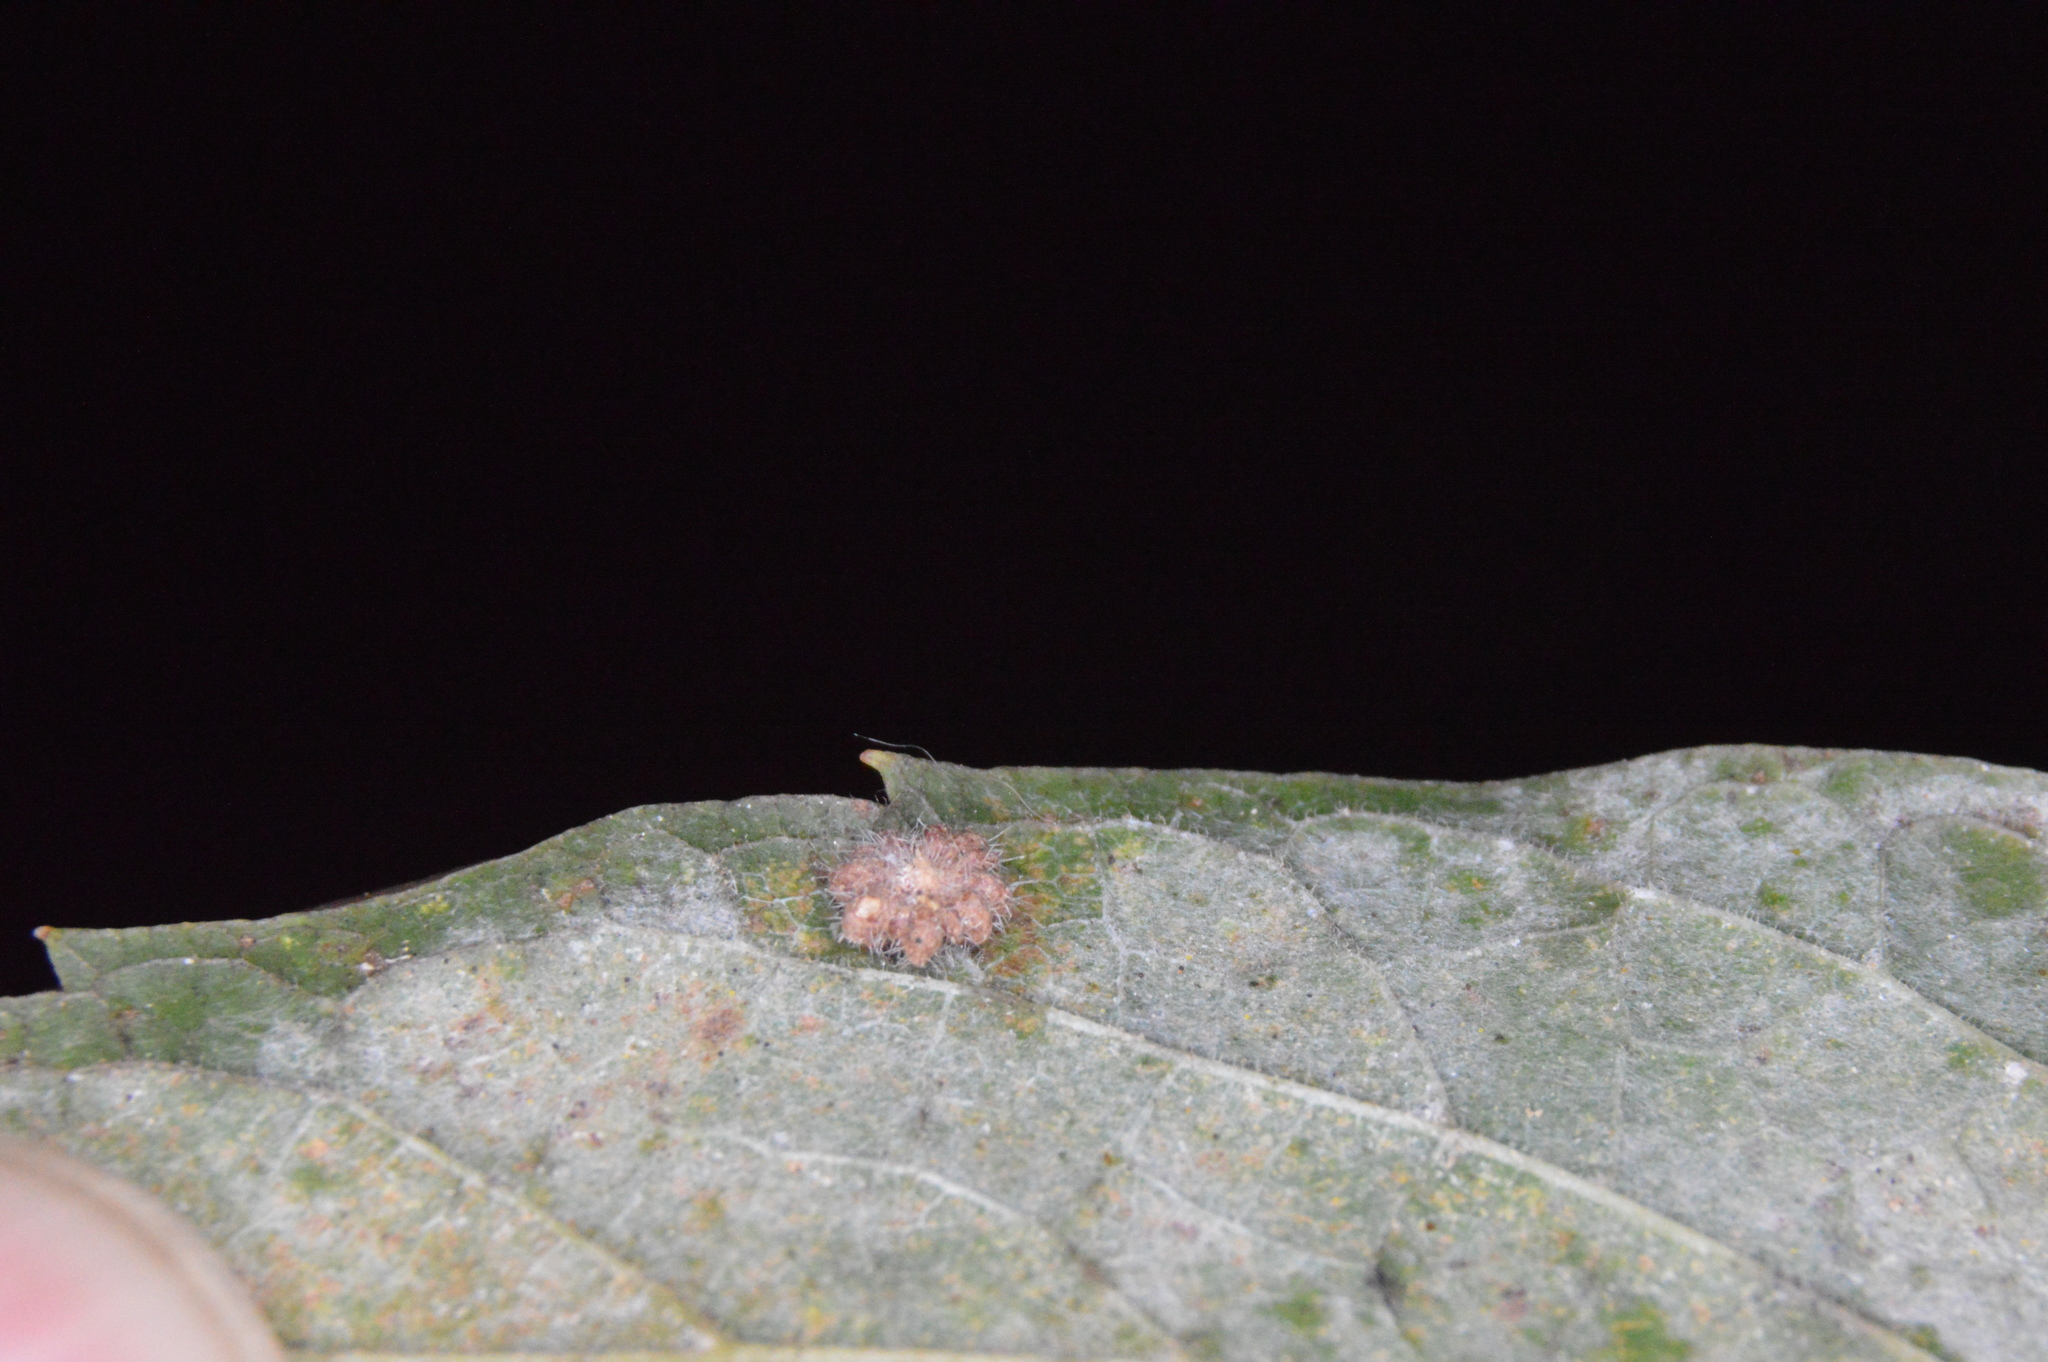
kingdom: Animalia
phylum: Arthropoda
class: Insecta
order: Diptera
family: Cecidomyiidae
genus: Celticecis
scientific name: Celticecis capsularis
